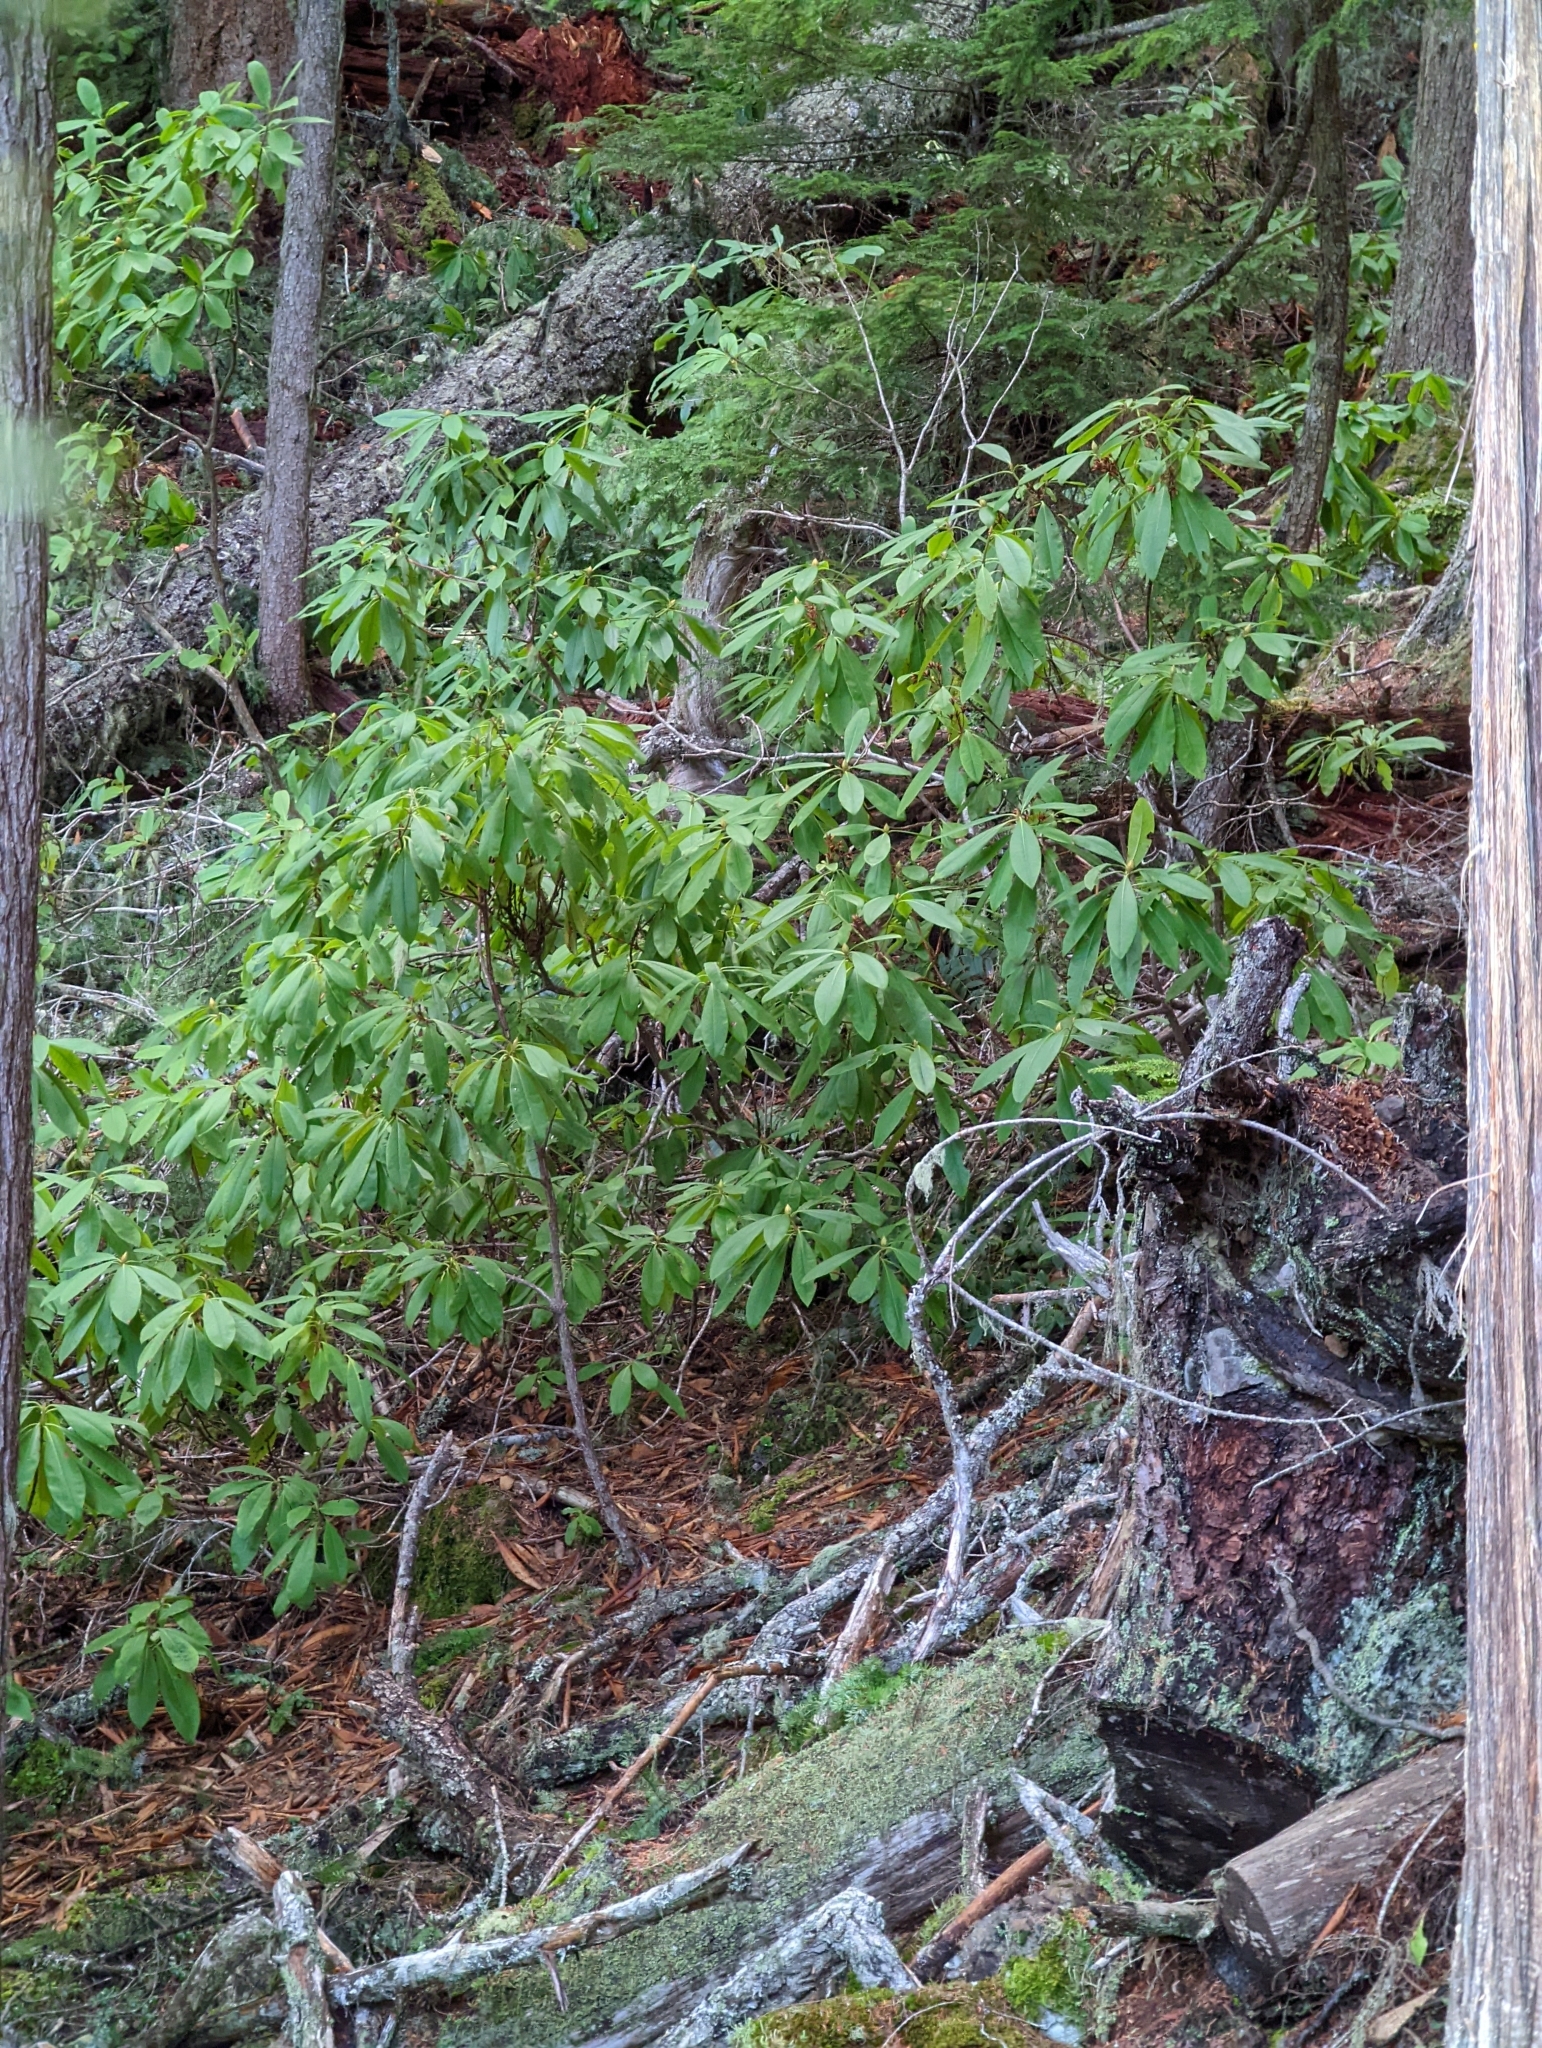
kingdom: Plantae
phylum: Tracheophyta
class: Magnoliopsida
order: Ericales
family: Ericaceae
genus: Rhododendron
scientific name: Rhododendron macrophyllum
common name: California rose bay
